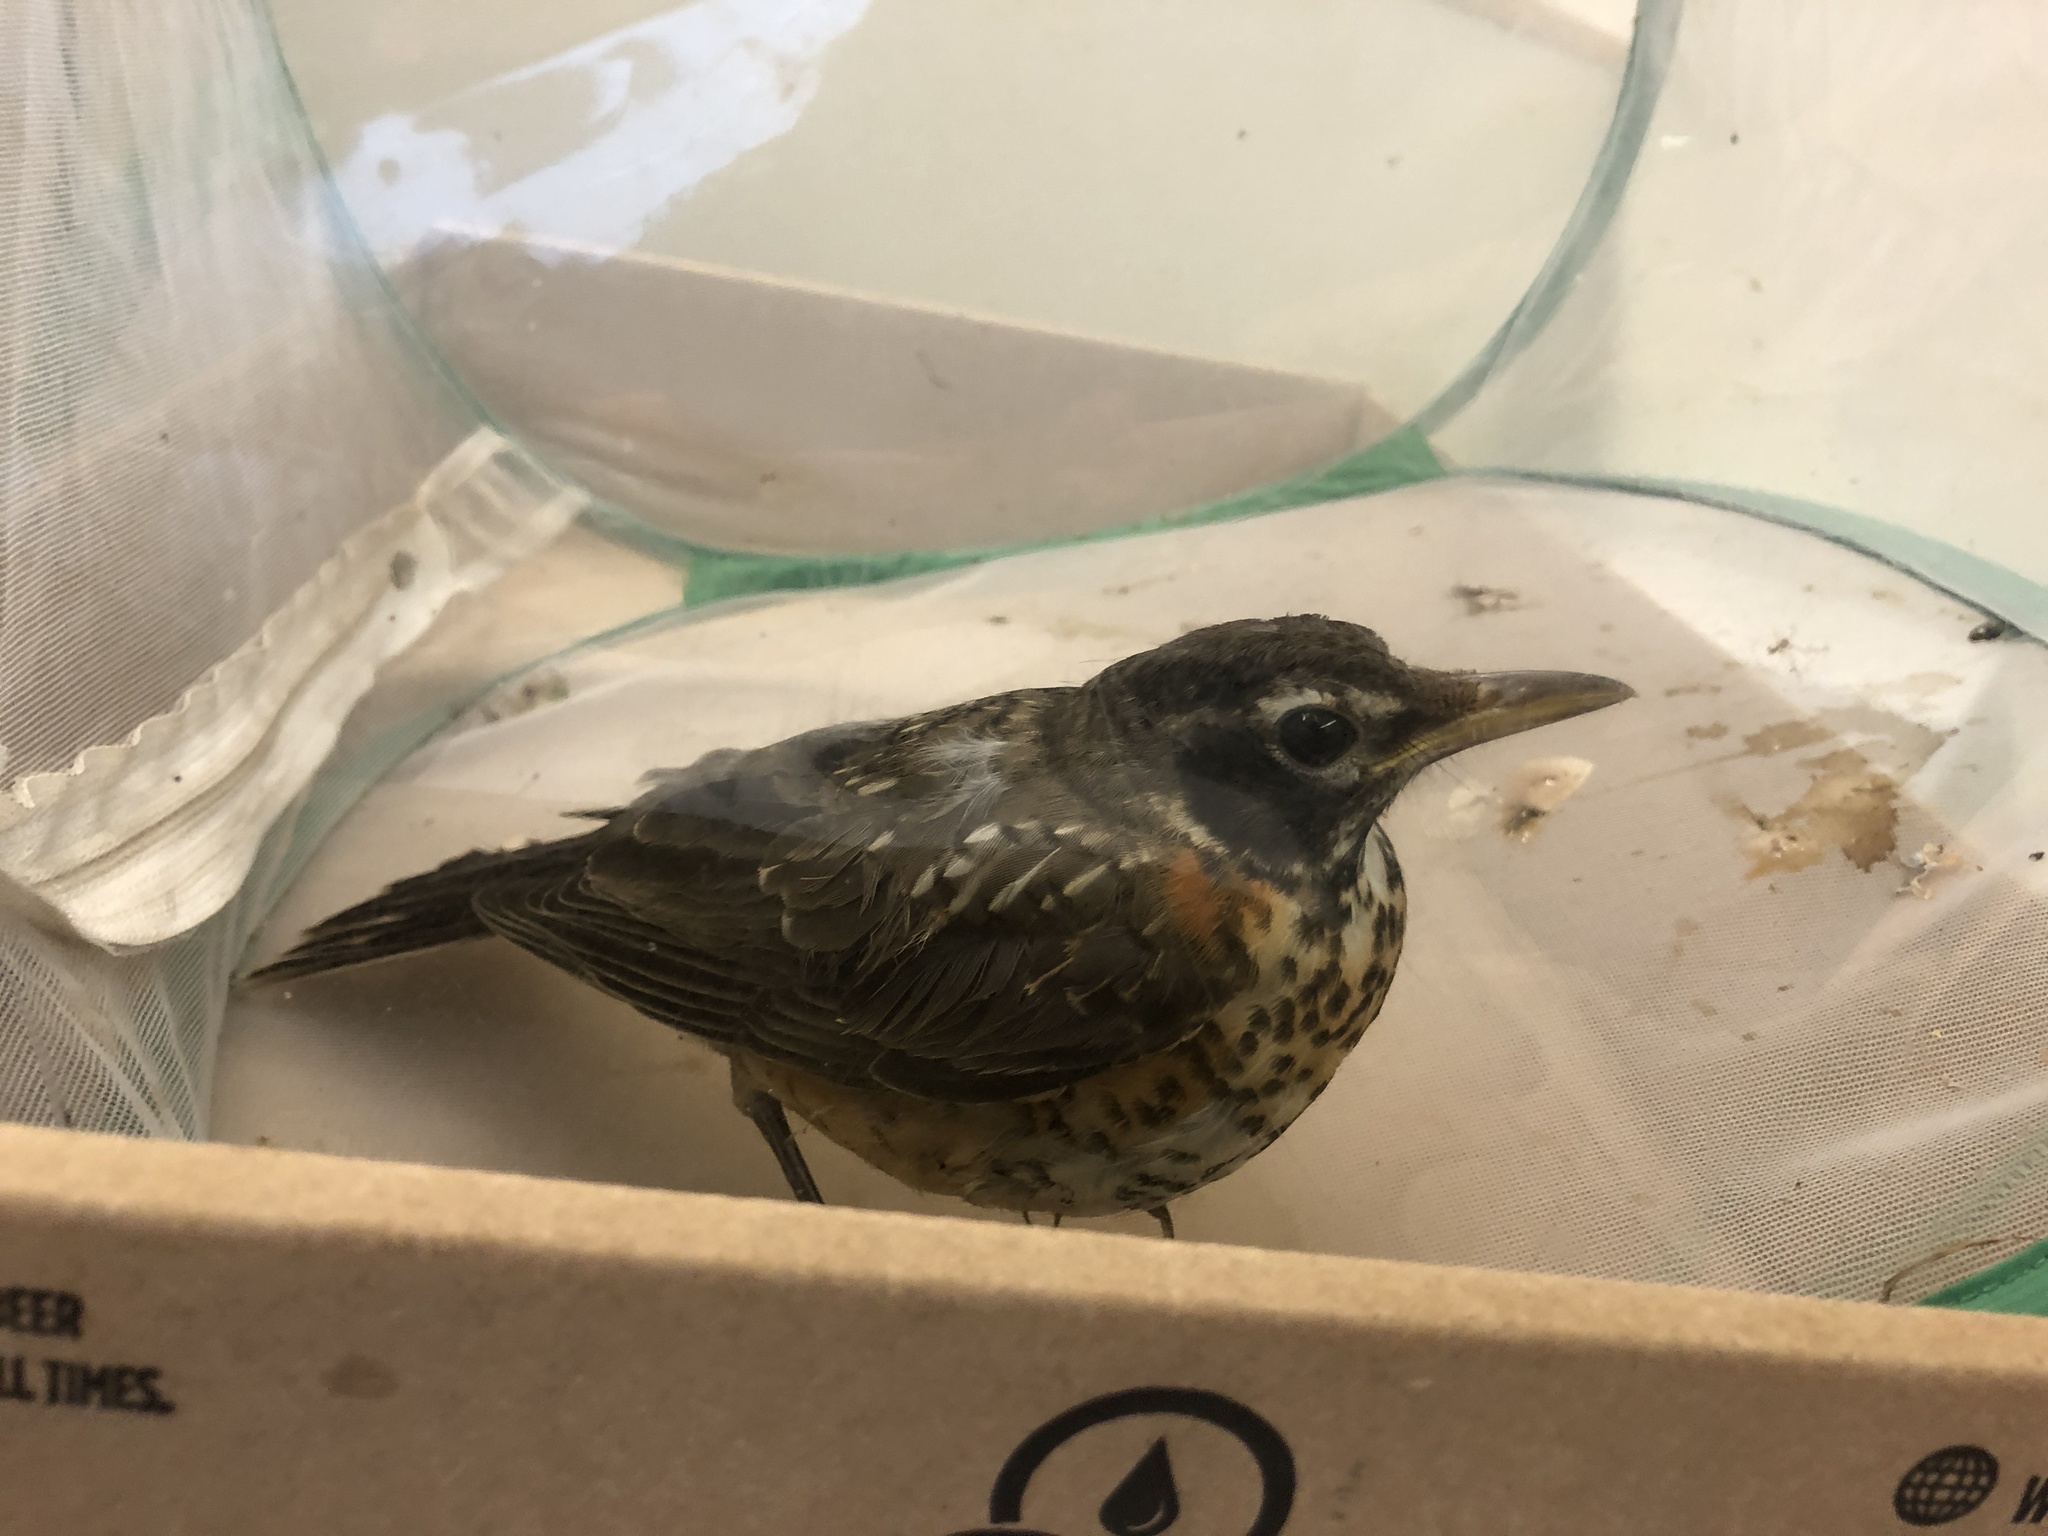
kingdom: Animalia
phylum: Chordata
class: Aves
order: Passeriformes
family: Turdidae
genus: Turdus
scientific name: Turdus migratorius
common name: American robin
